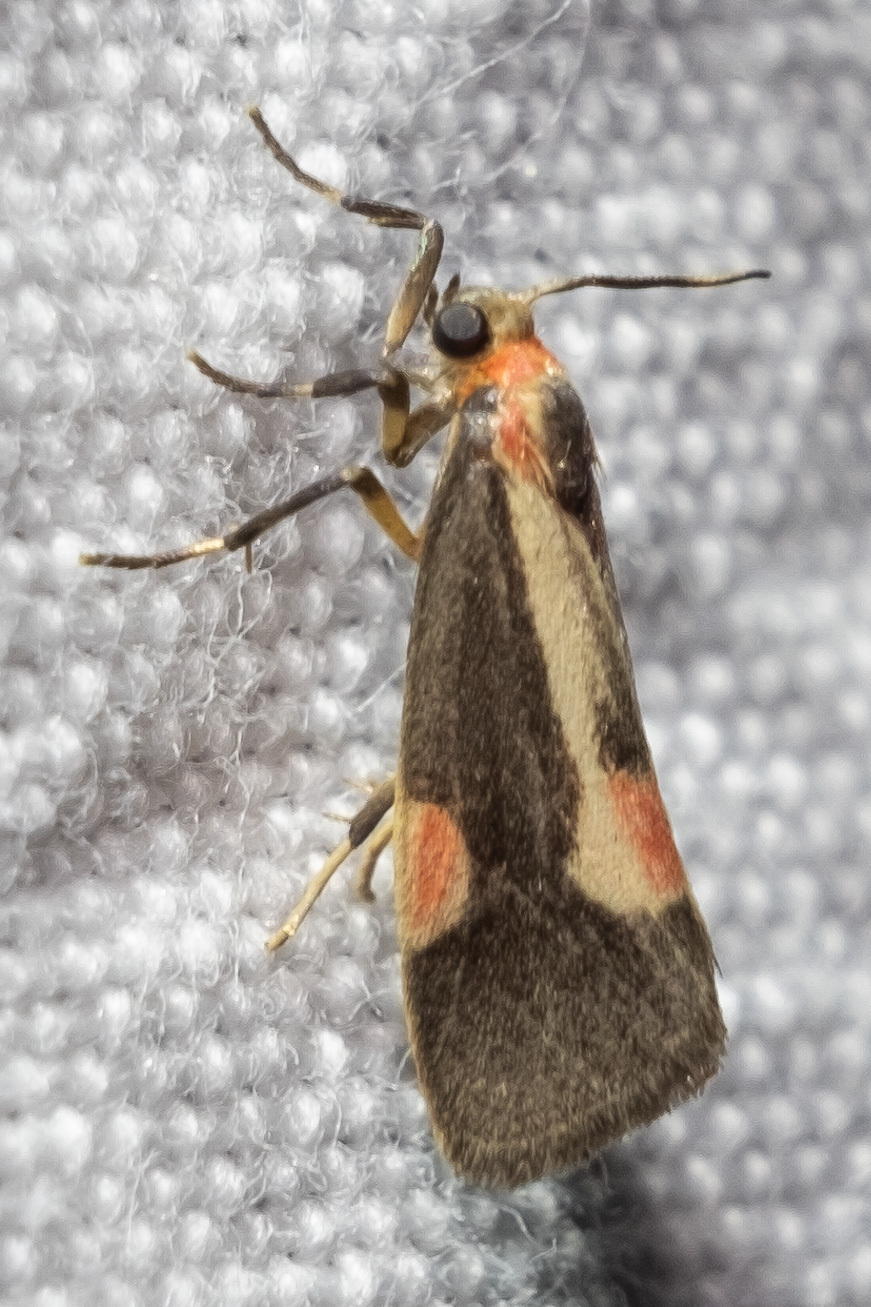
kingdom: Animalia
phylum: Arthropoda
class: Insecta
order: Lepidoptera
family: Erebidae
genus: Cisthene
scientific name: Cisthene packardii
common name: Packard's lichen moth
